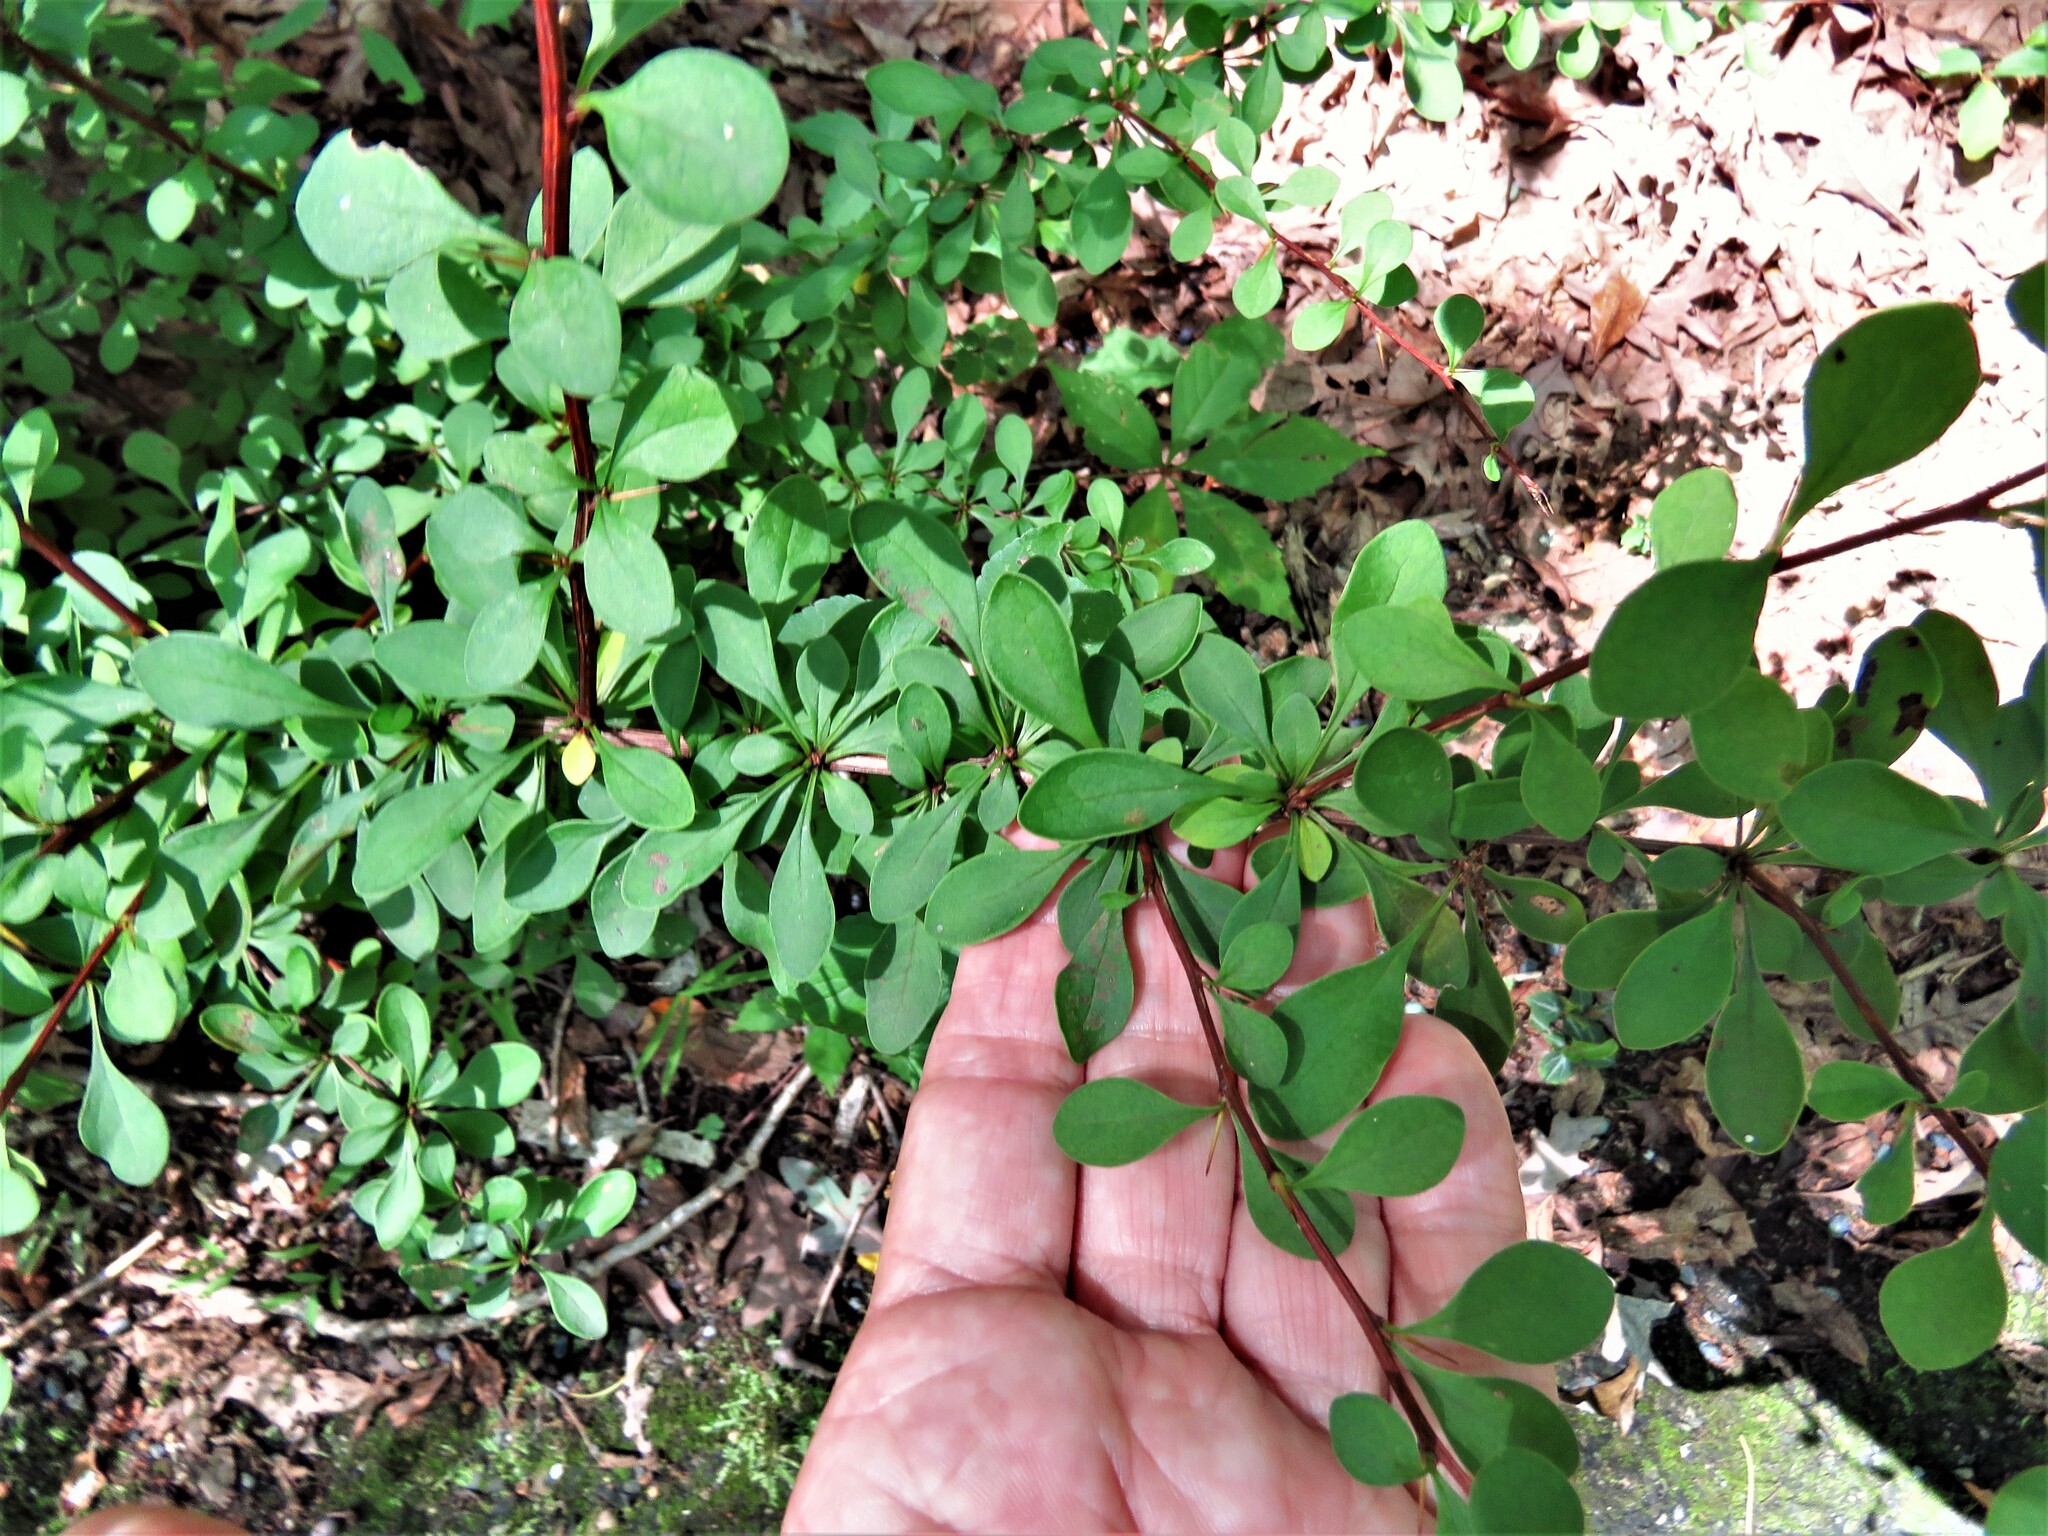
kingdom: Plantae
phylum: Tracheophyta
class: Magnoliopsida
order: Ranunculales
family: Berberidaceae
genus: Berberis
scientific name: Berberis thunbergii
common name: Japanese barberry
